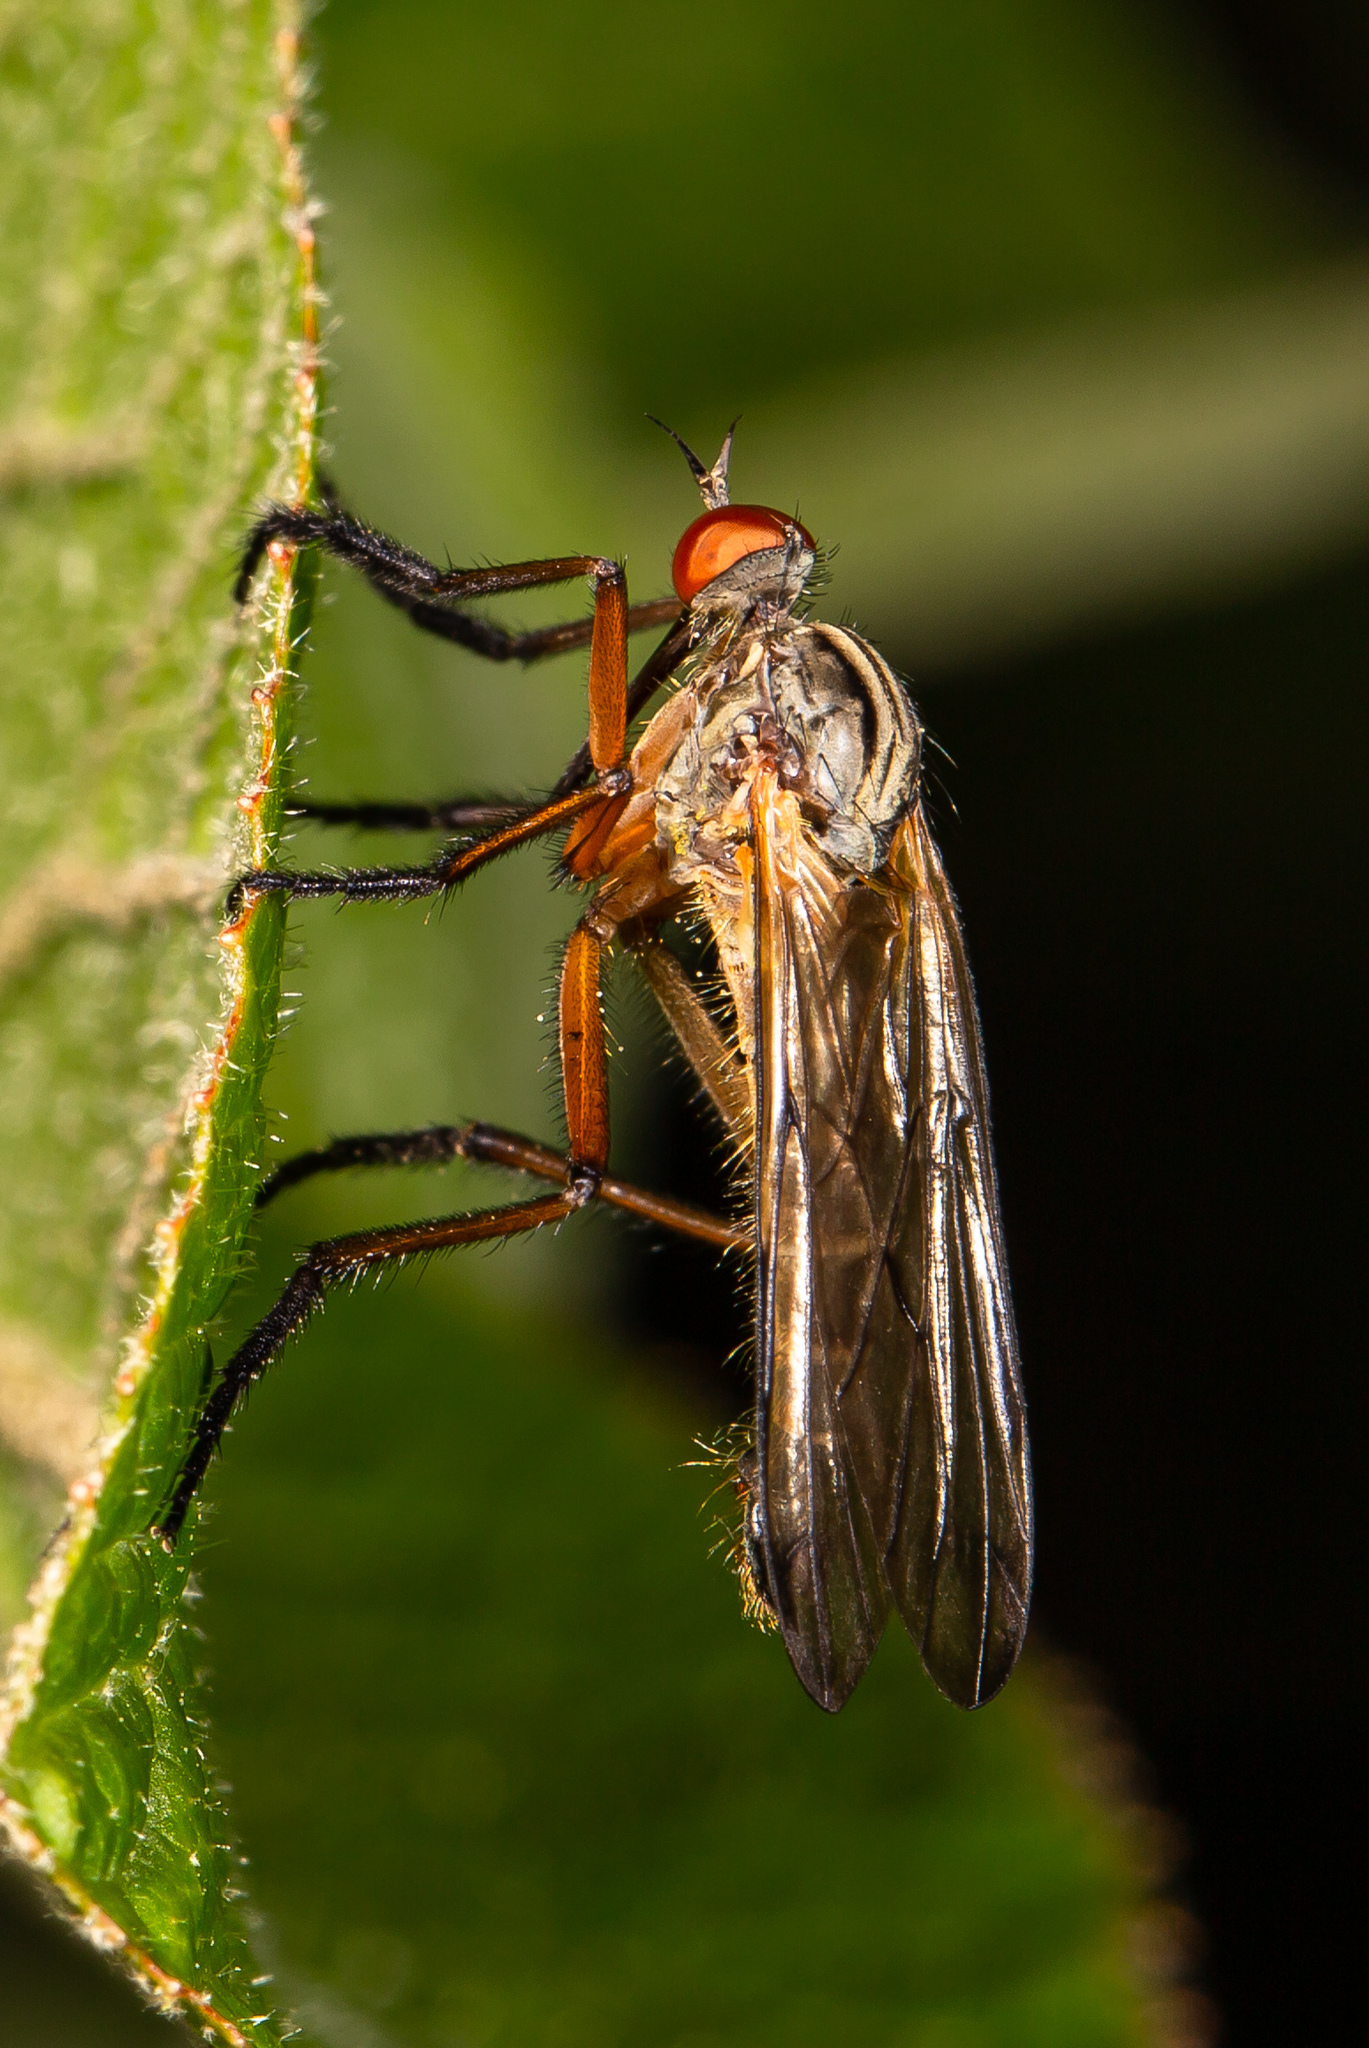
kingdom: Animalia
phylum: Arthropoda
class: Insecta
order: Diptera
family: Empididae
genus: Empis
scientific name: Empis maculata
